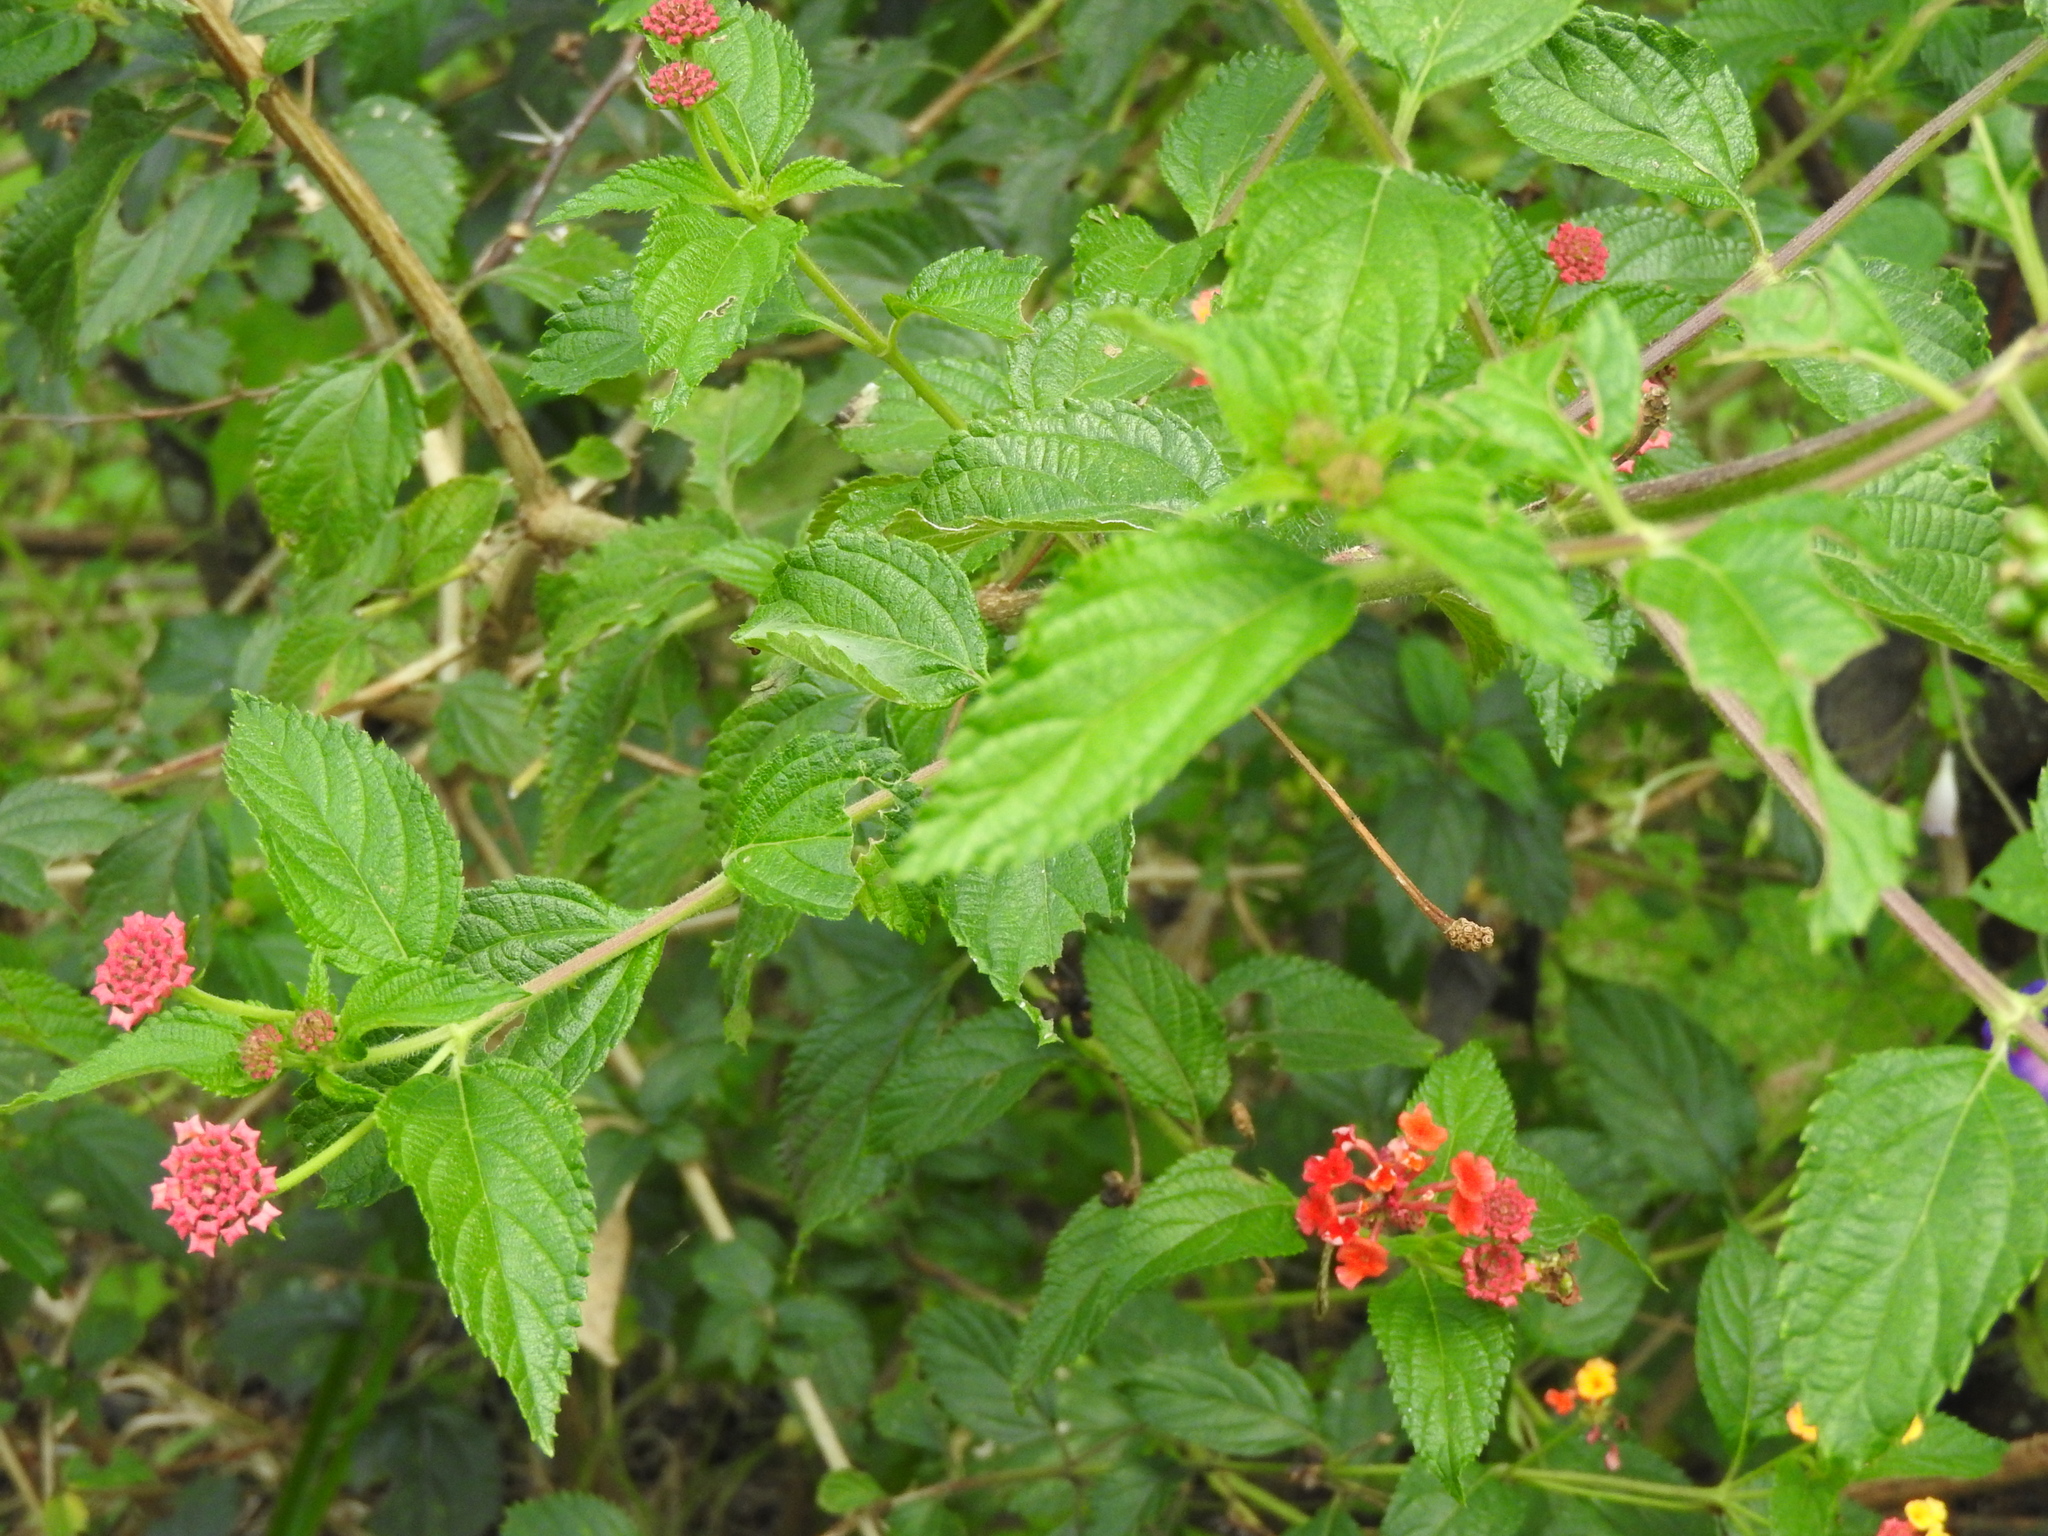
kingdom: Plantae
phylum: Tracheophyta
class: Magnoliopsida
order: Lamiales
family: Verbenaceae
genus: Lantana
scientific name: Lantana camara
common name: Lantana
